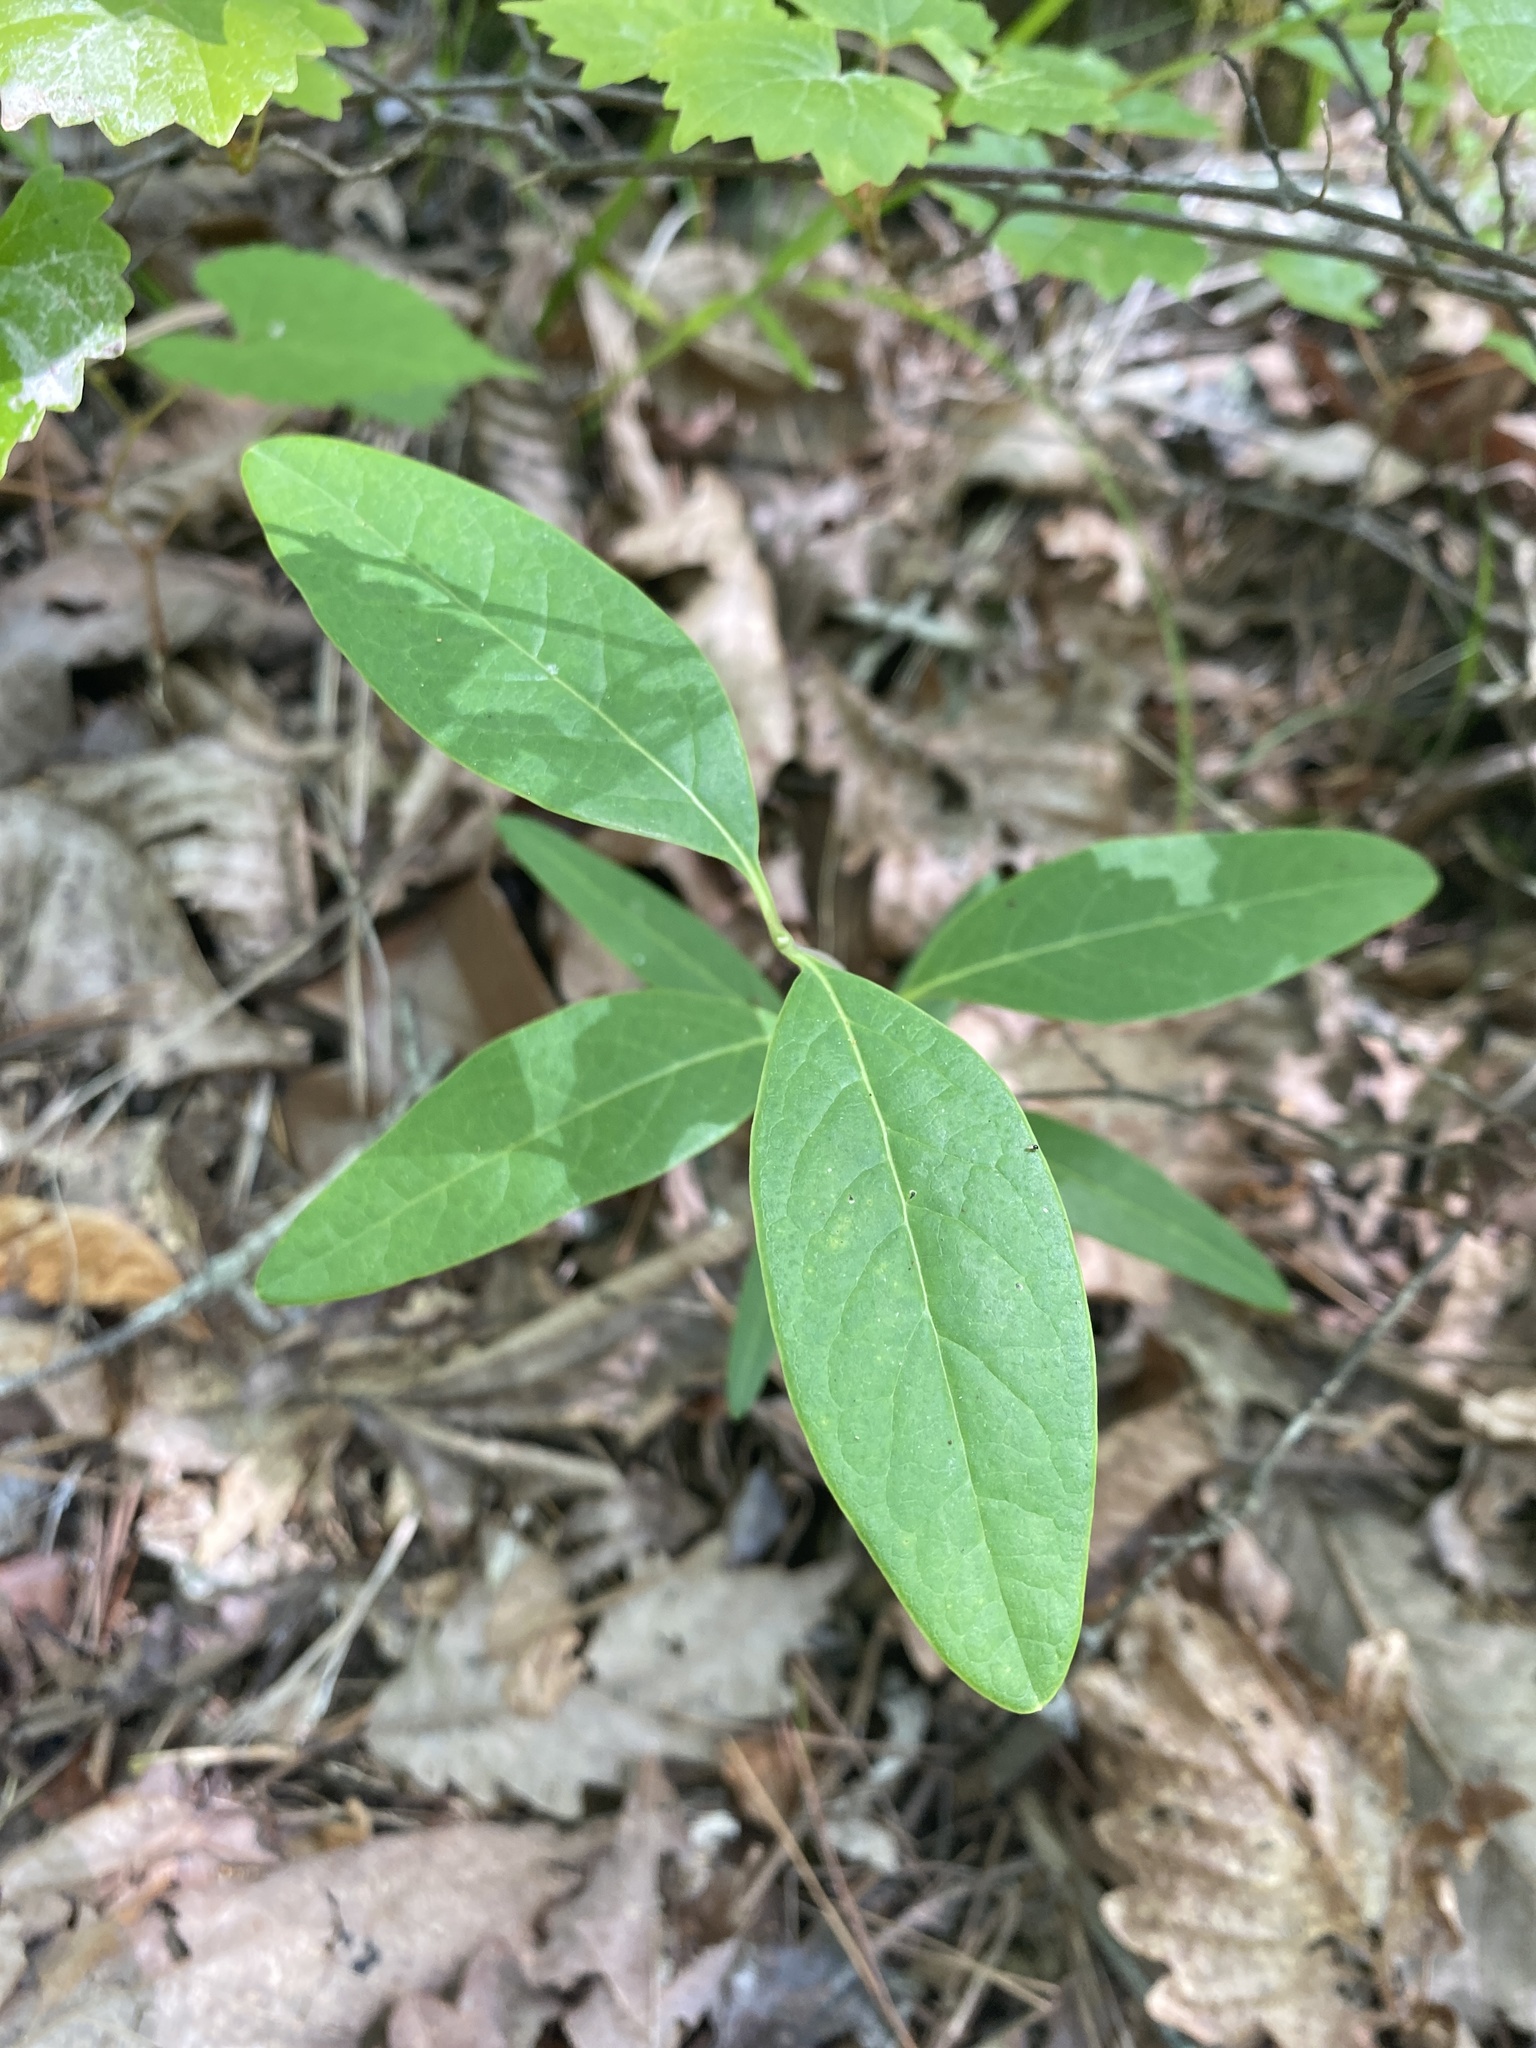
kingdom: Plantae
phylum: Tracheophyta
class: Magnoliopsida
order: Dipsacales
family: Caprifoliaceae
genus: Lonicera
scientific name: Lonicera sempervirens
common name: Coral honeysuckle
